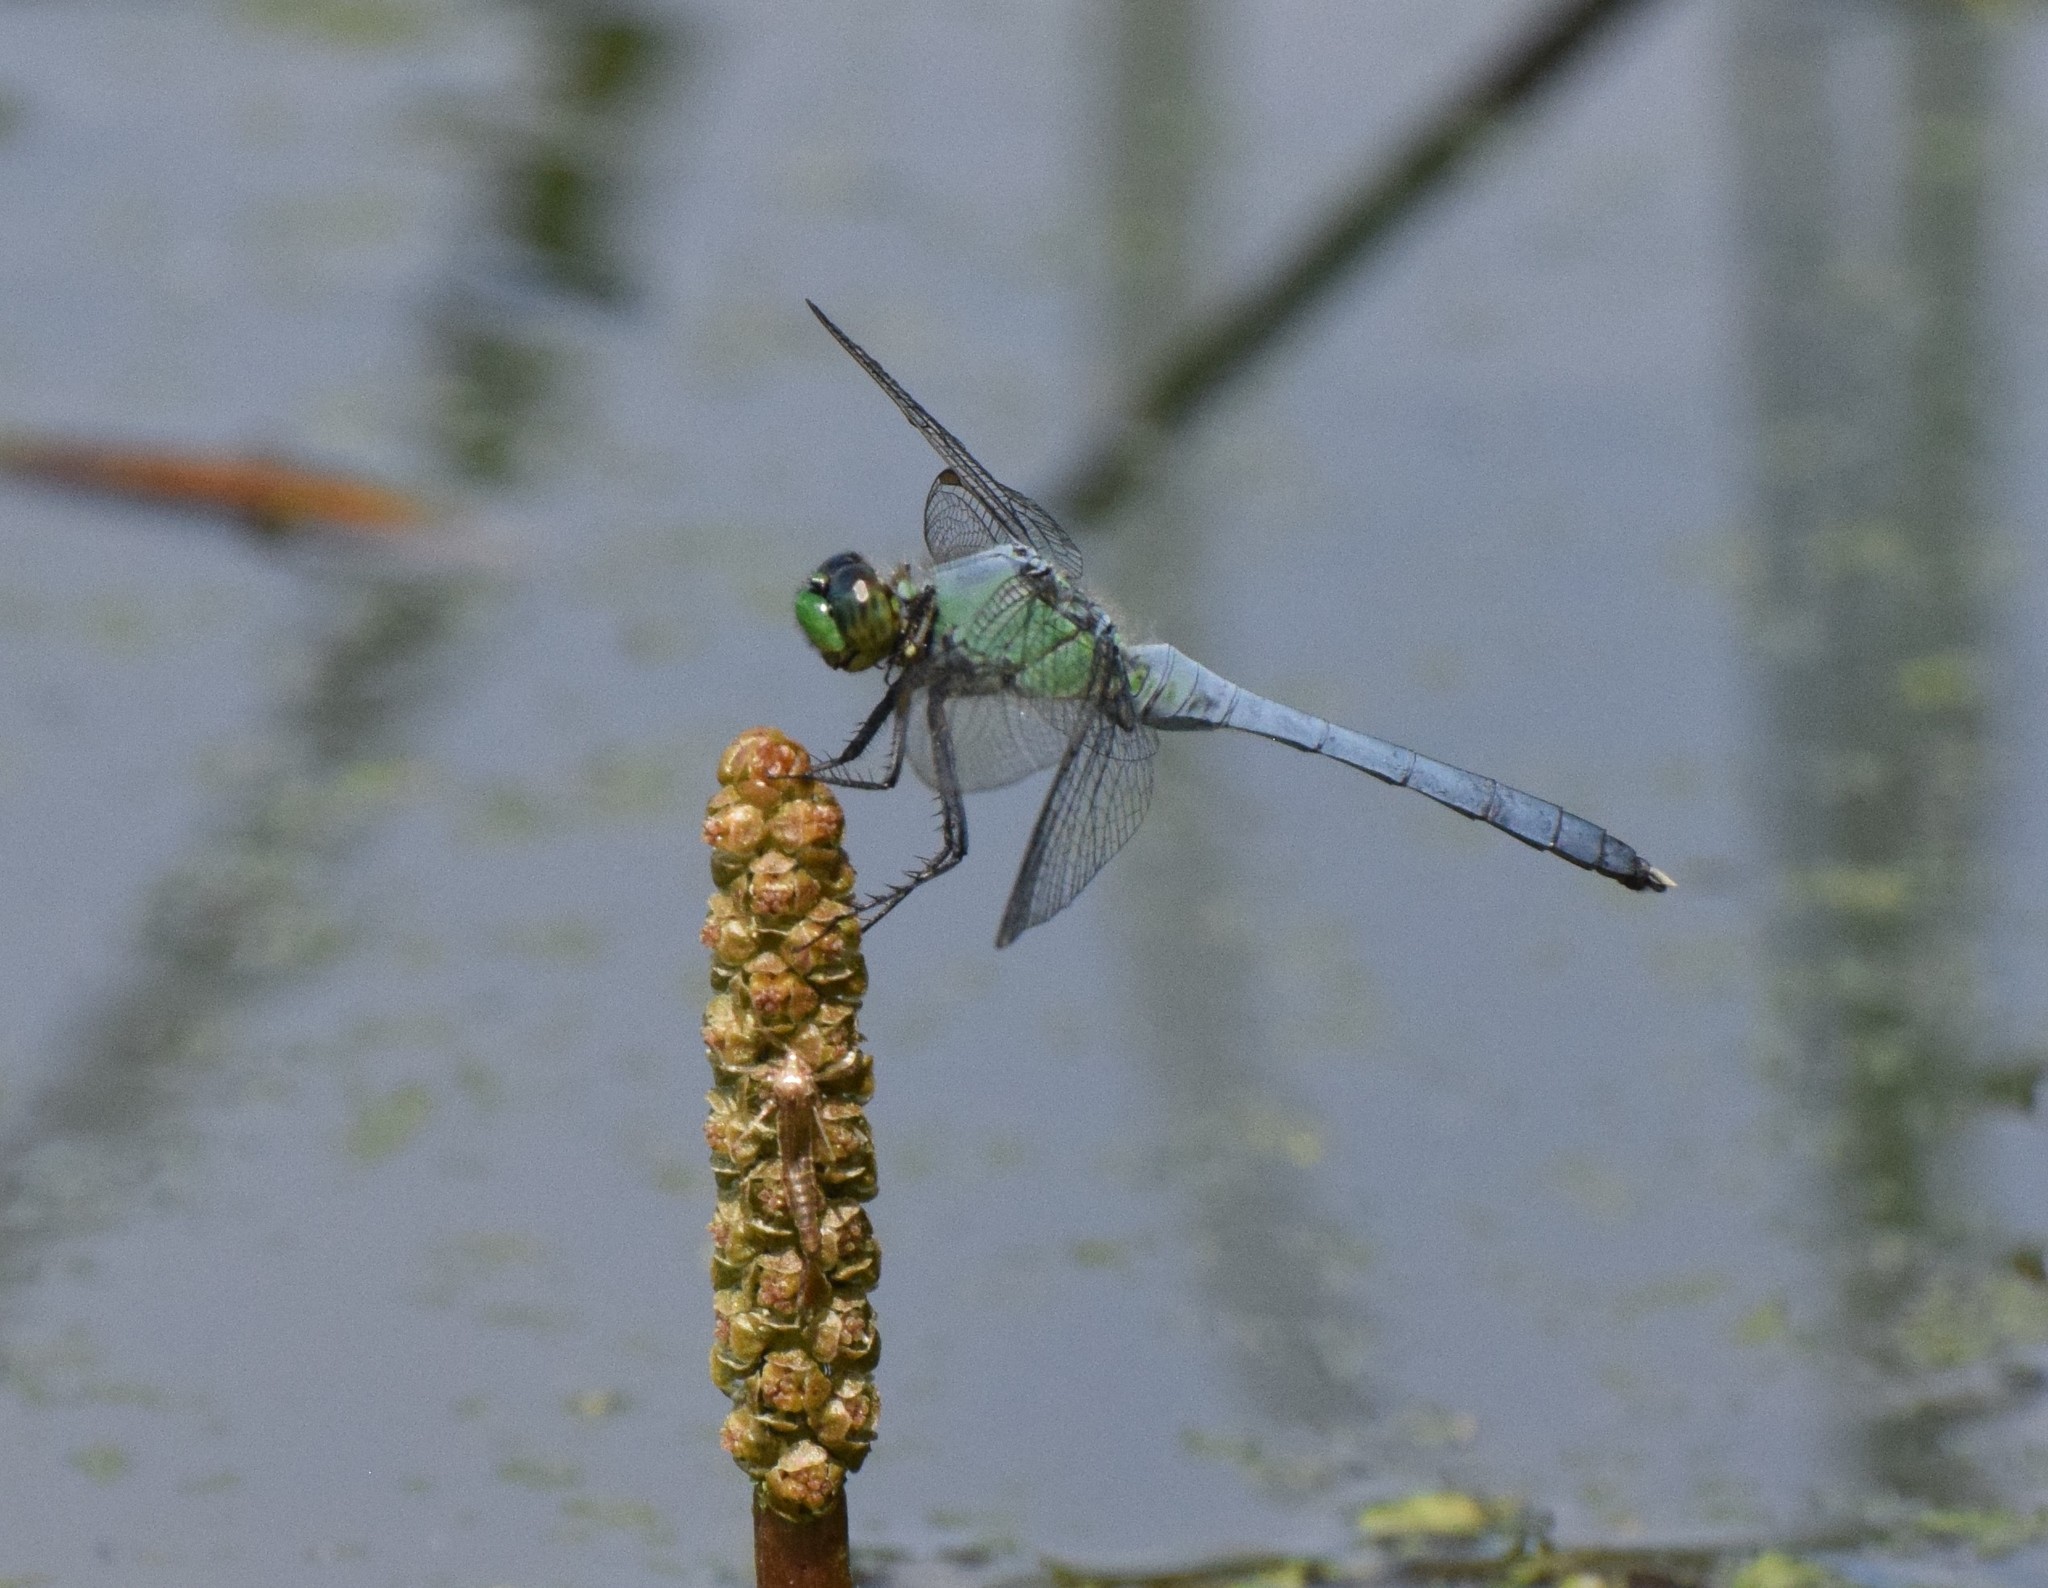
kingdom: Animalia
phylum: Arthropoda
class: Insecta
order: Odonata
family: Libellulidae
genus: Erythemis
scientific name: Erythemis simplicicollis
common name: Eastern pondhawk
